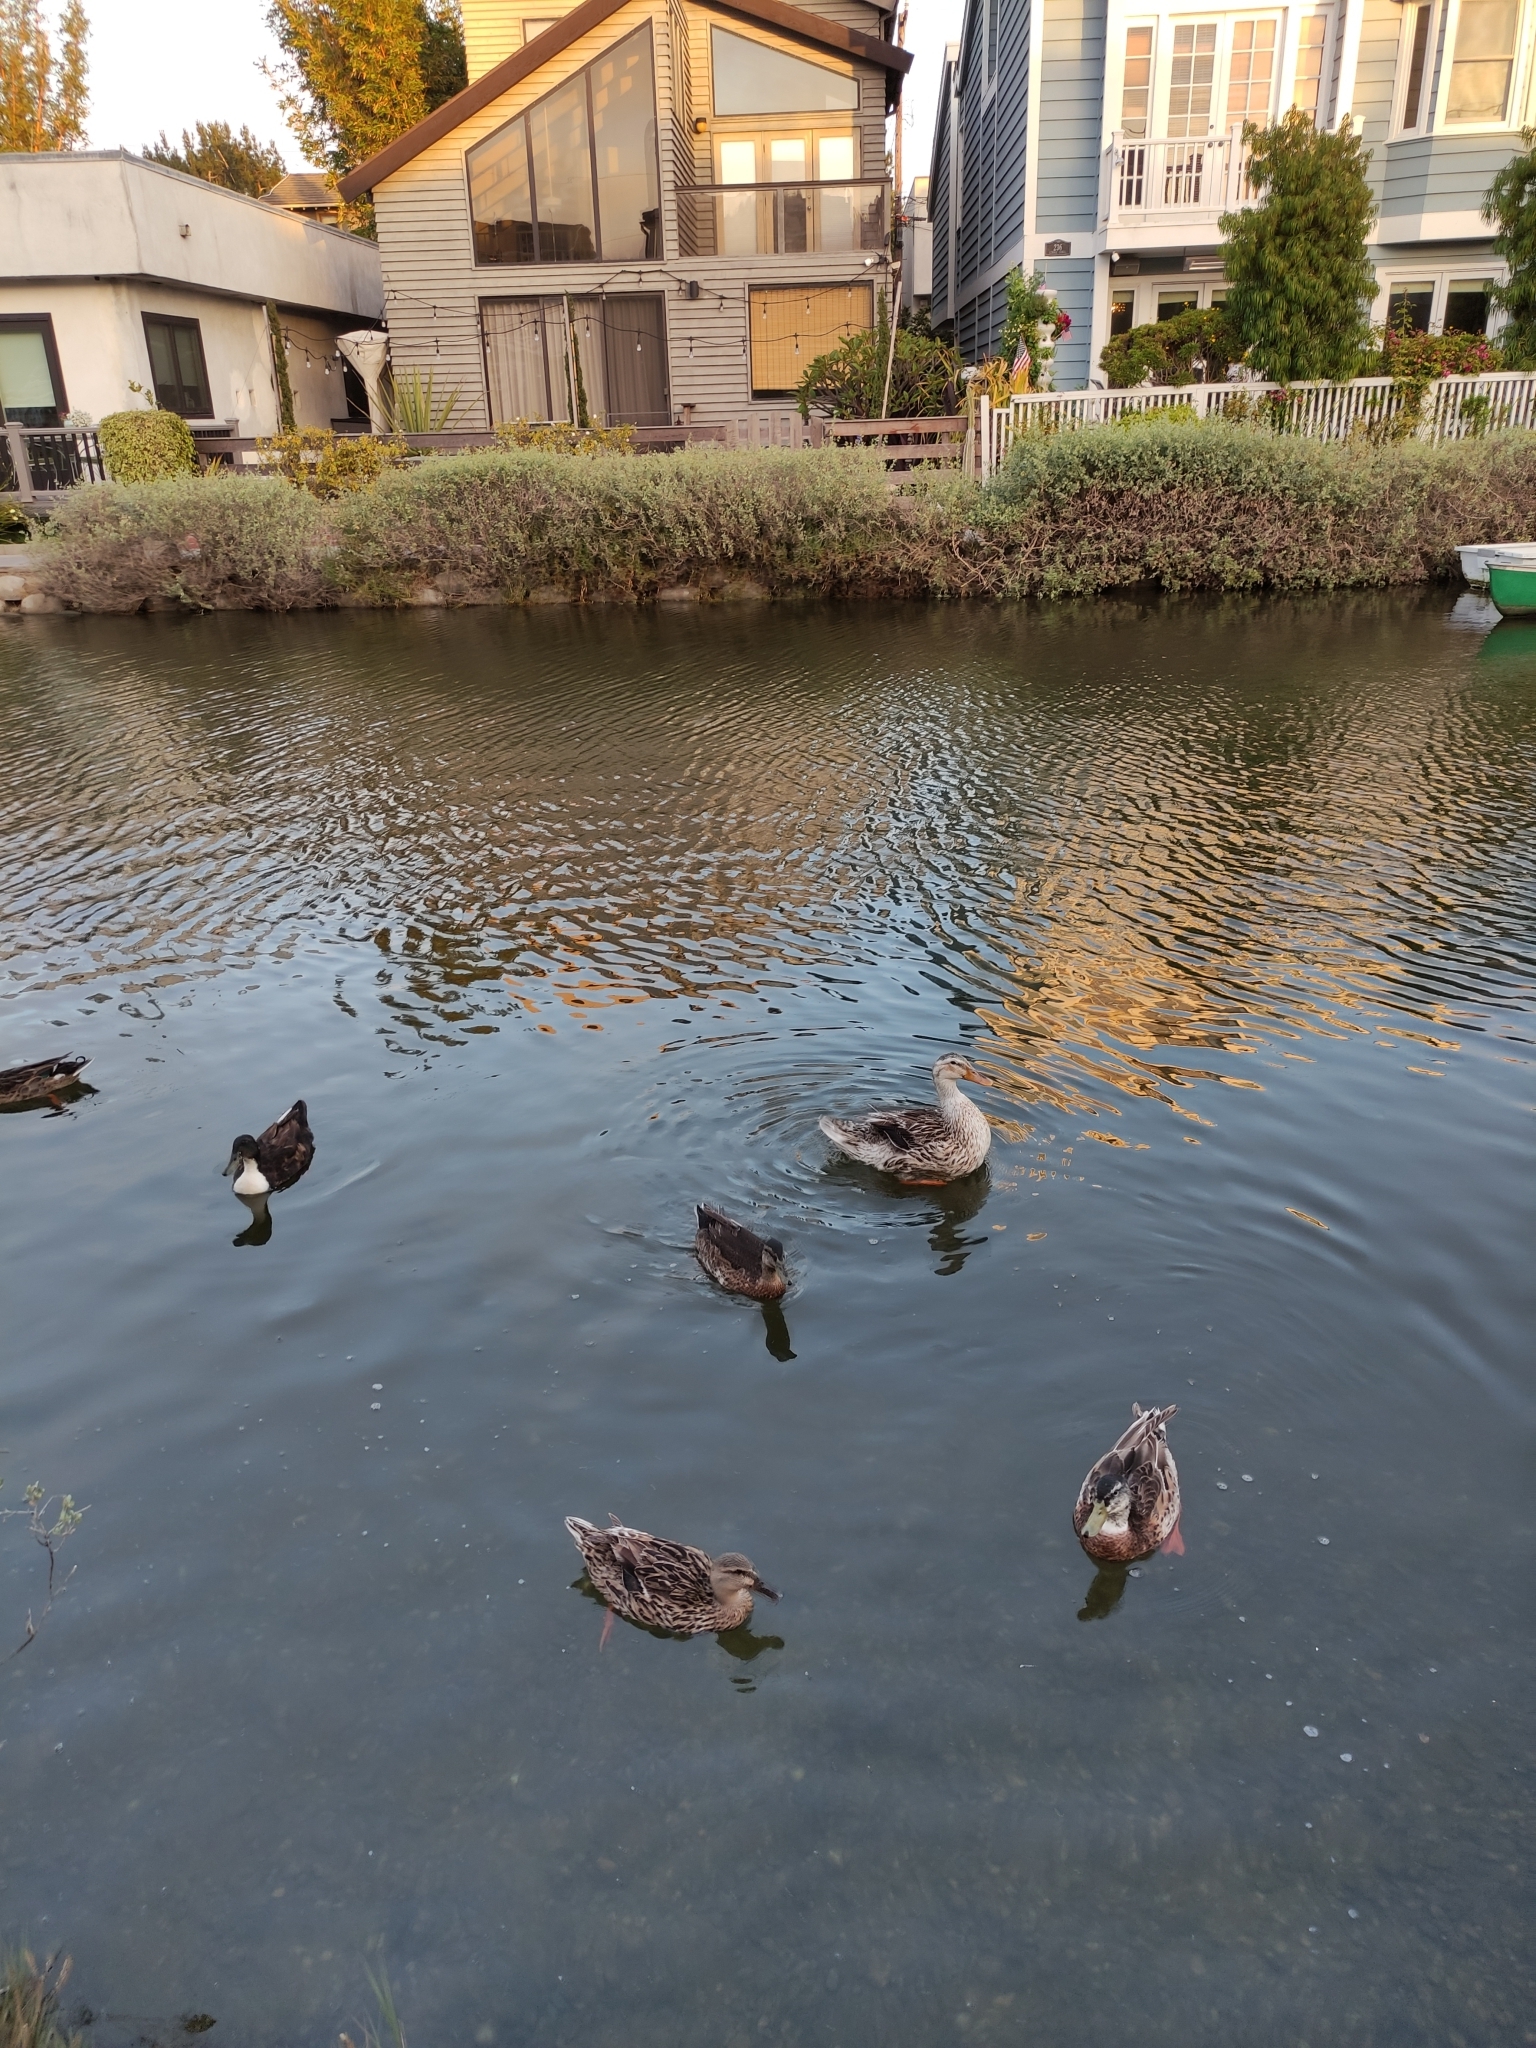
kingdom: Animalia
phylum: Chordata
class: Aves
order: Anseriformes
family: Anatidae
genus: Anas
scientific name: Anas platyrhynchos
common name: Mallard
